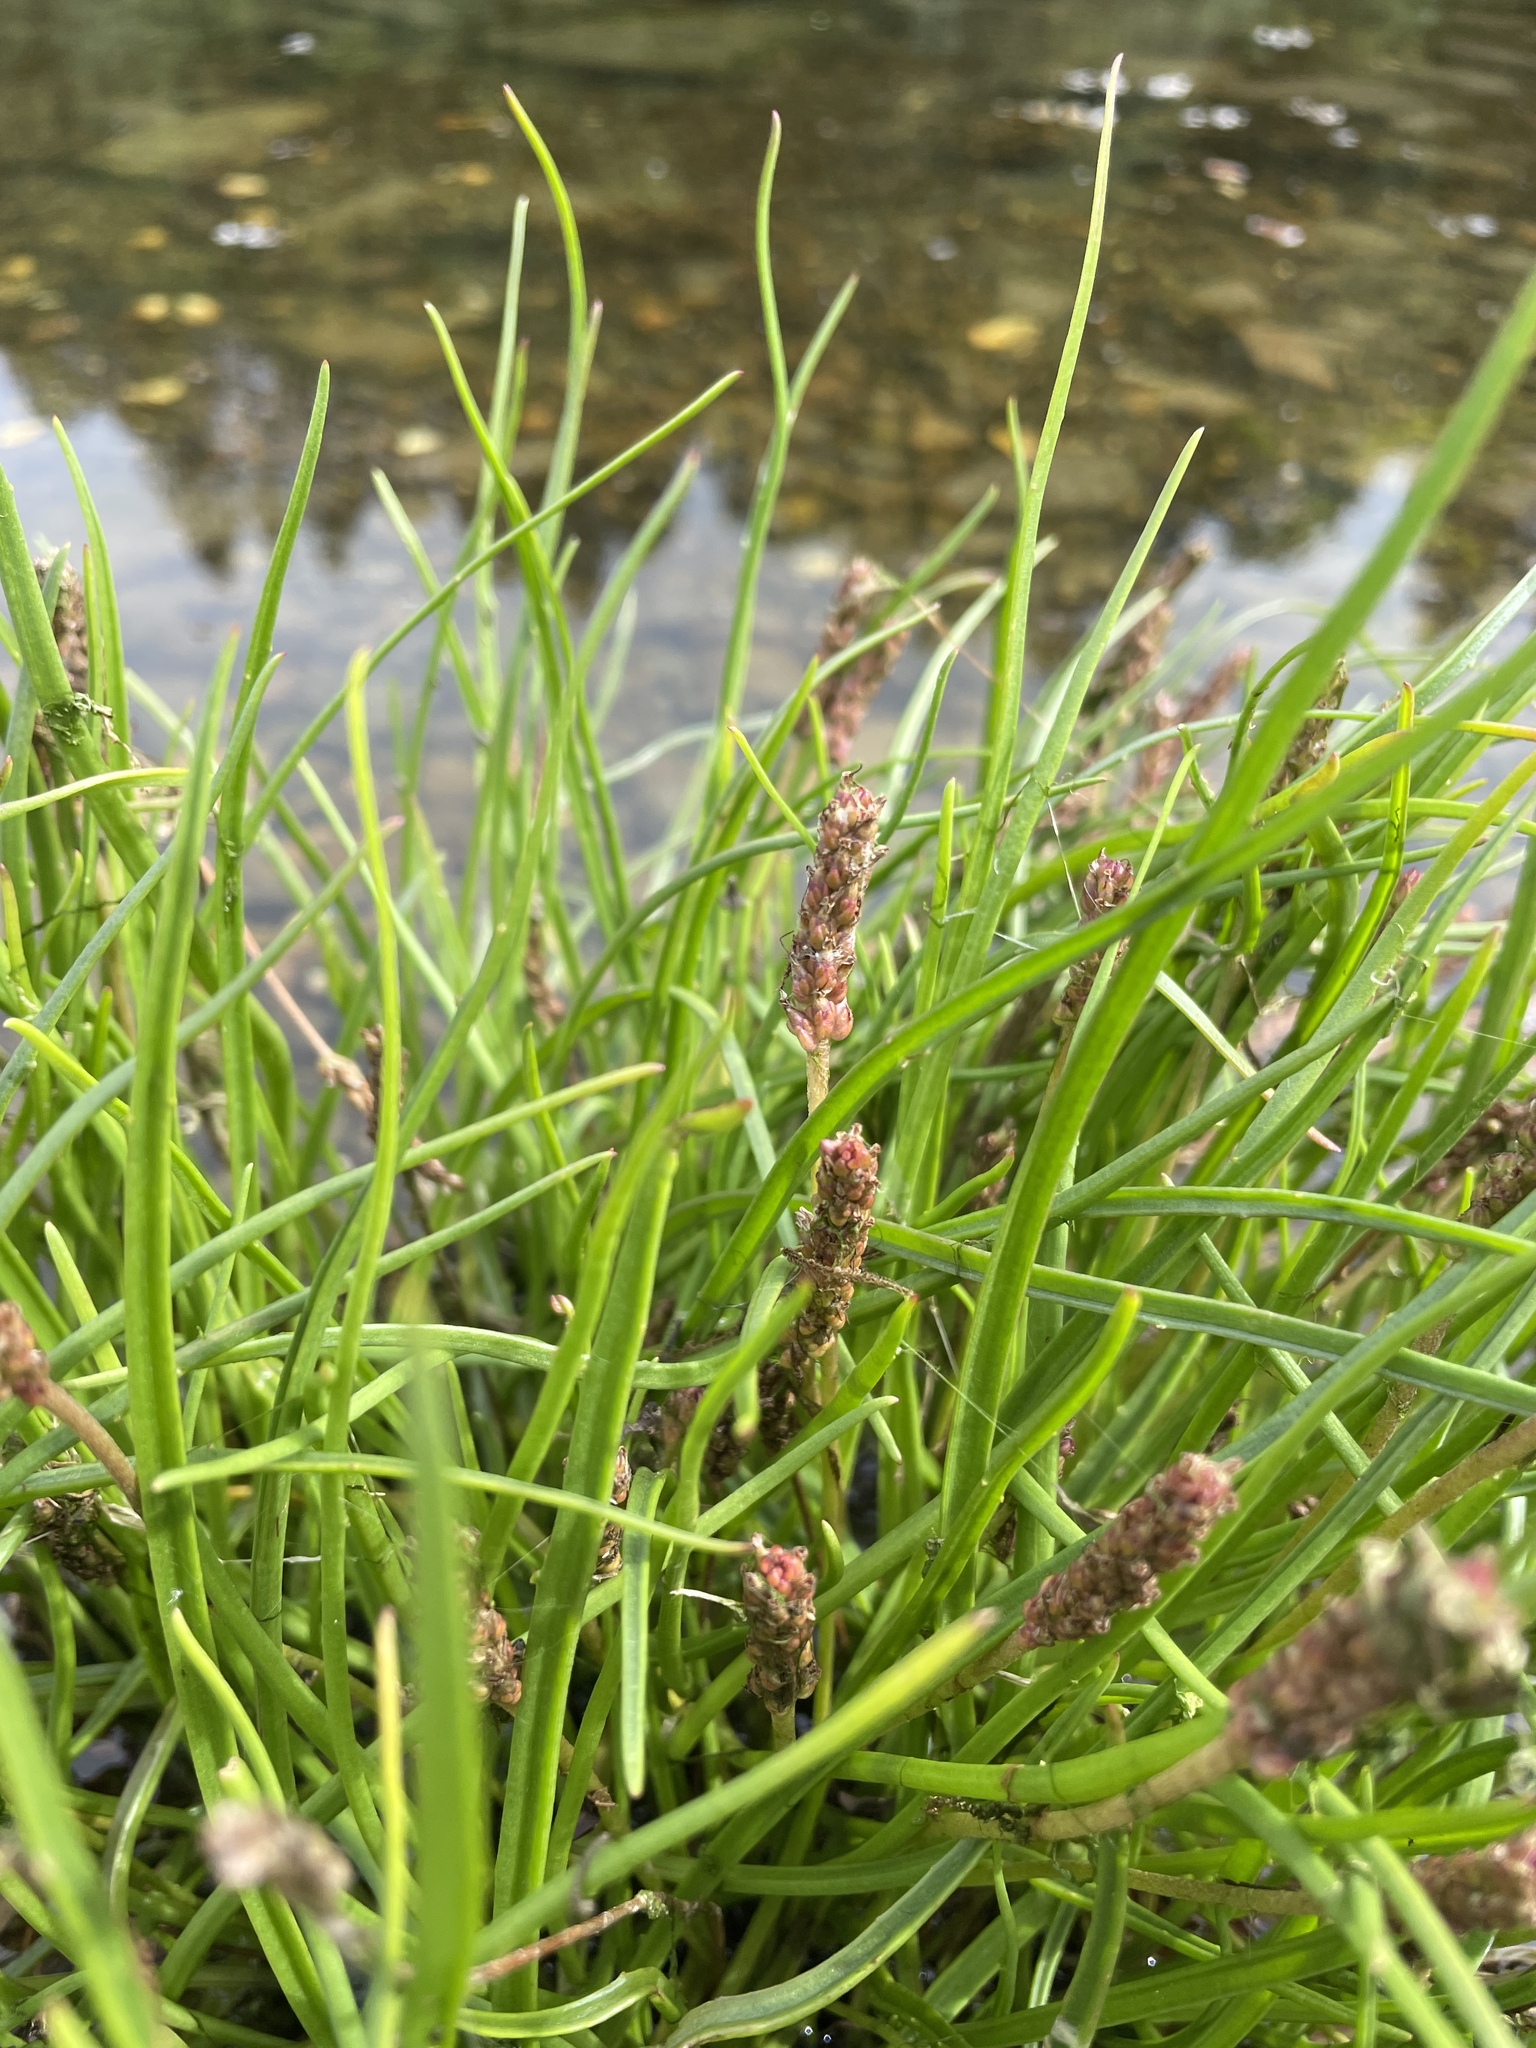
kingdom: Plantae
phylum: Tracheophyta
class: Magnoliopsida
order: Lamiales
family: Plantaginaceae
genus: Plantago
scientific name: Plantago maritima
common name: Sea plantain
